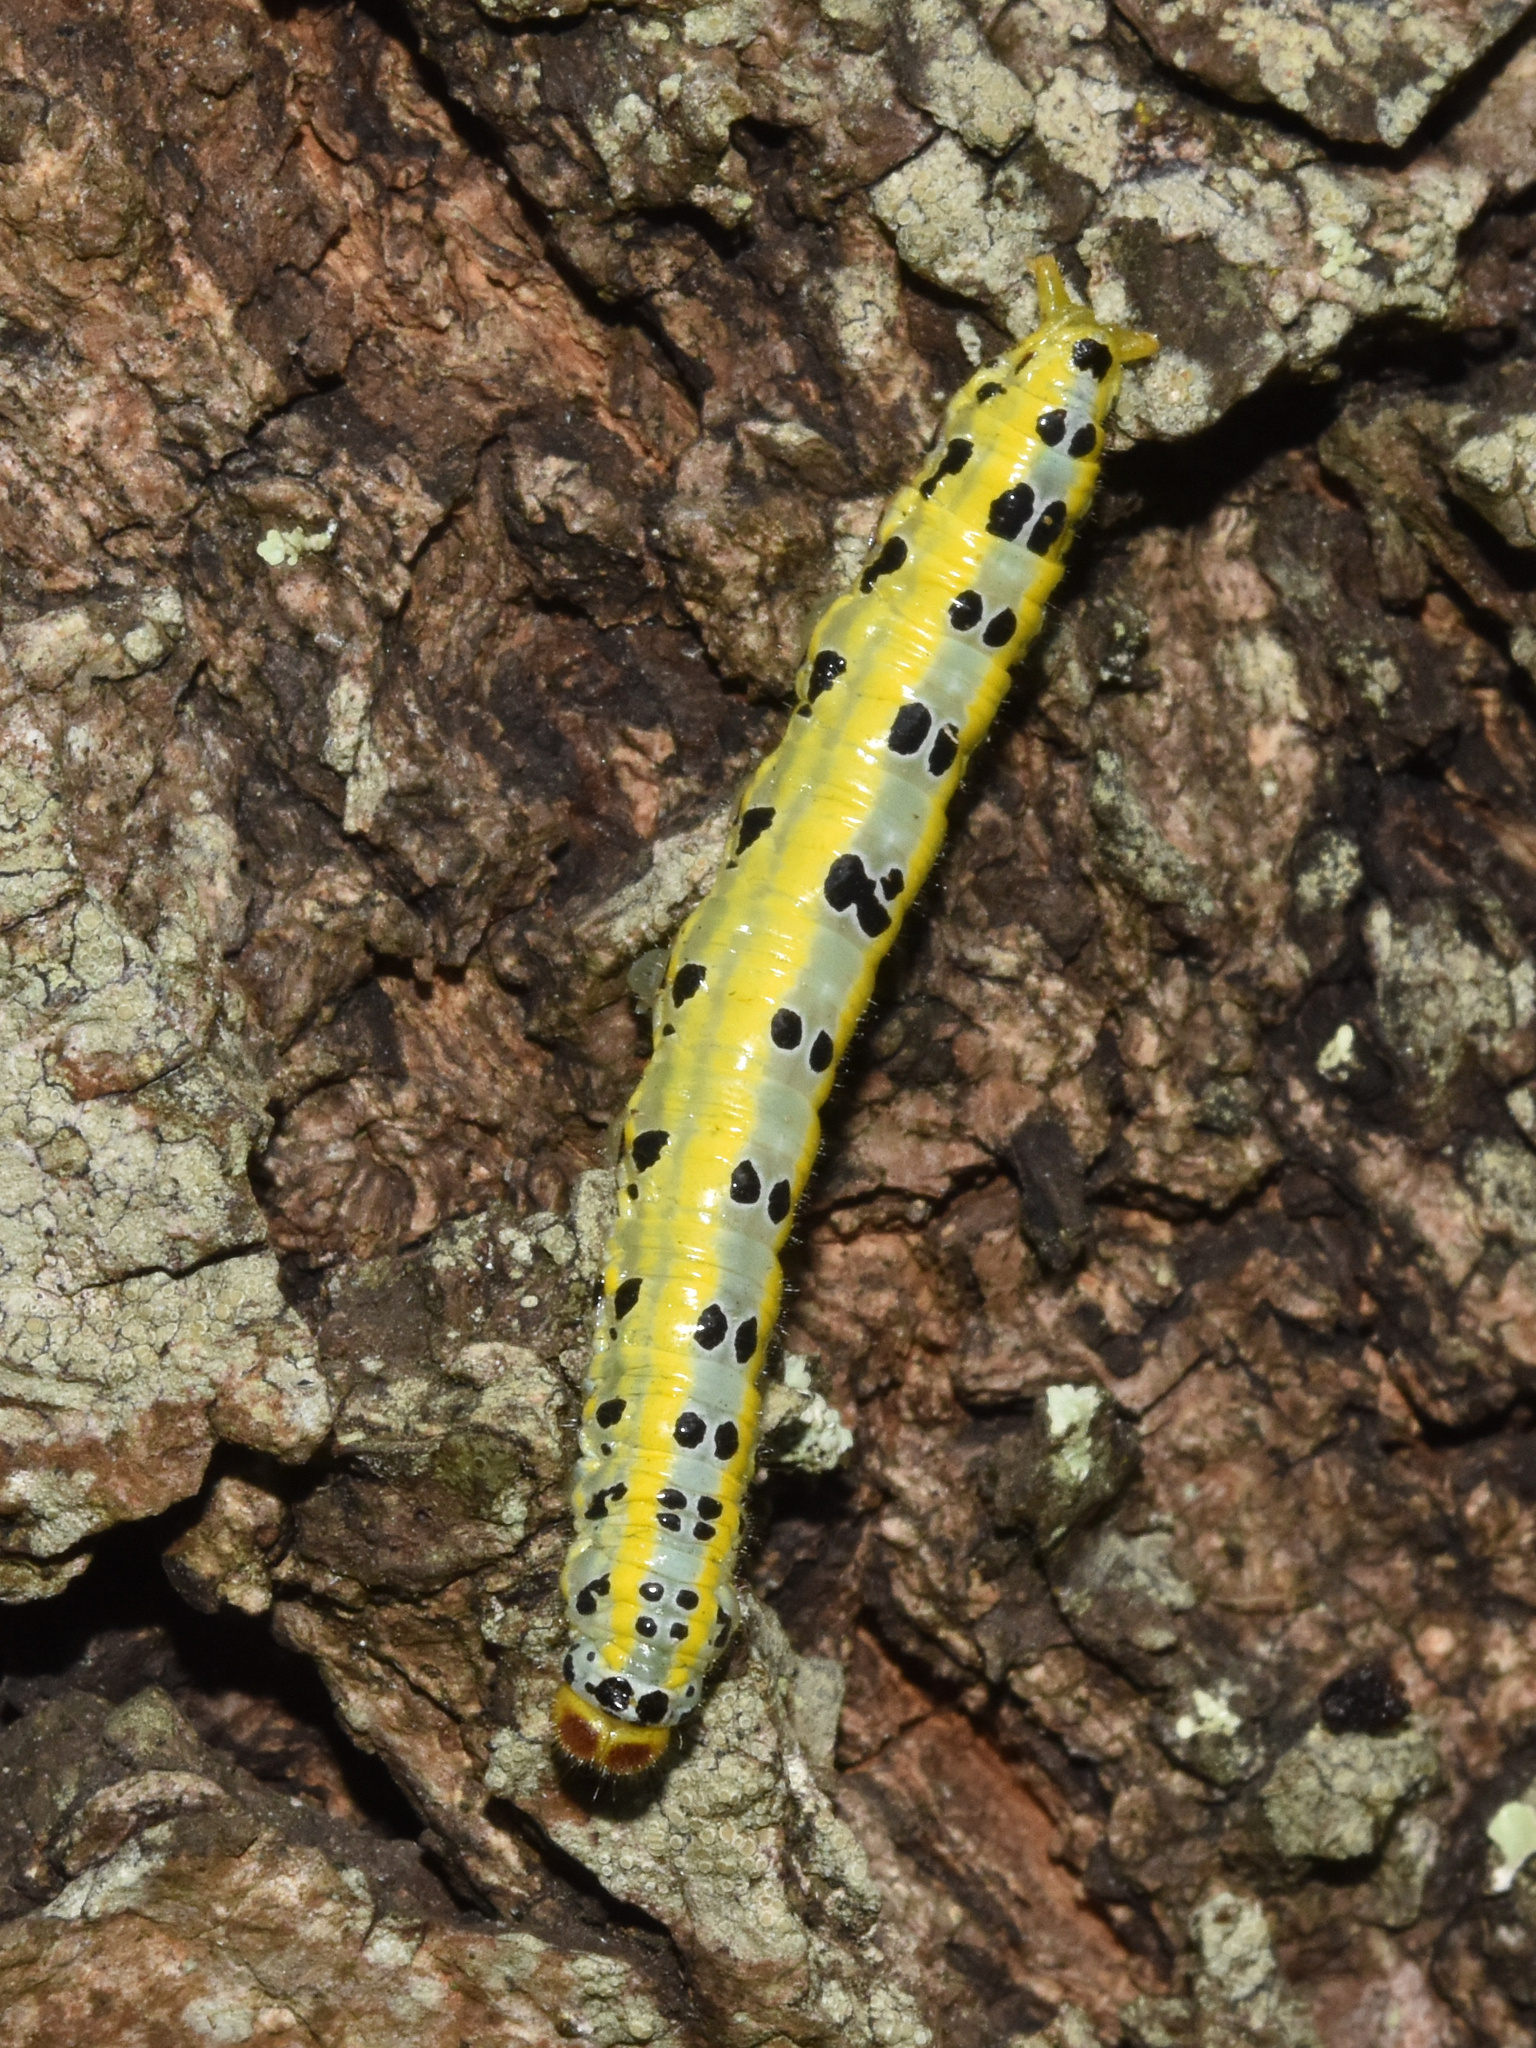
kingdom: Animalia
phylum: Arthropoda
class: Insecta
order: Lepidoptera
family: Notodontidae
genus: Rhenea
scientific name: Rhenea michii
